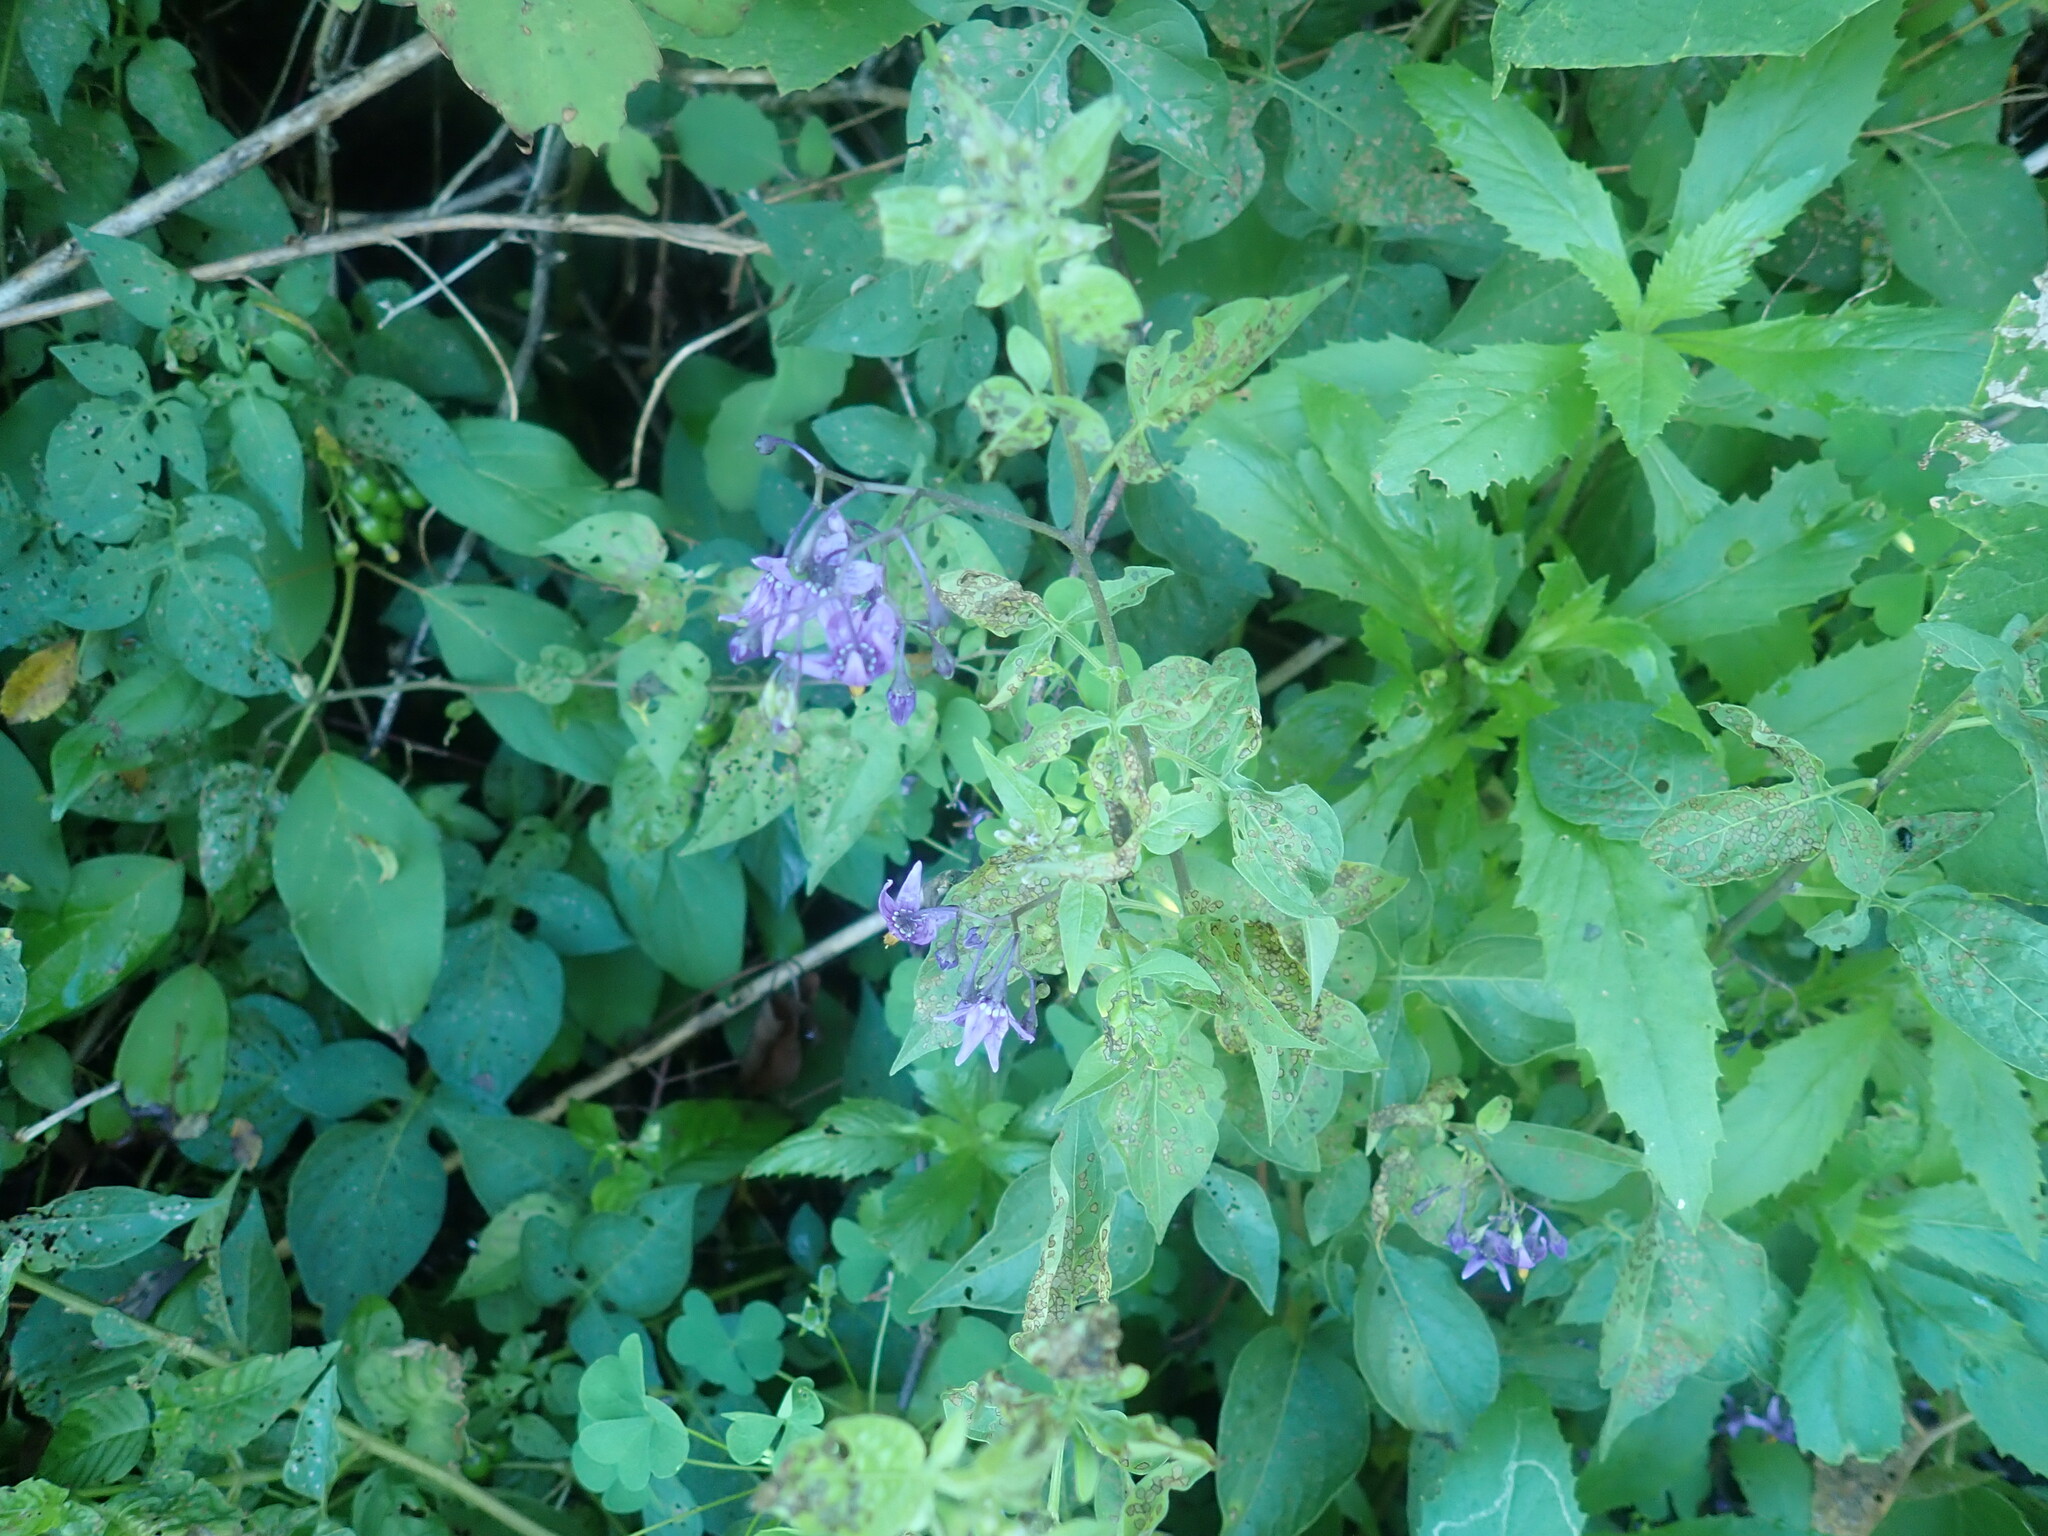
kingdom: Plantae
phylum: Tracheophyta
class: Magnoliopsida
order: Solanales
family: Solanaceae
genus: Solanum
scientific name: Solanum dulcamara
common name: Climbing nightshade
